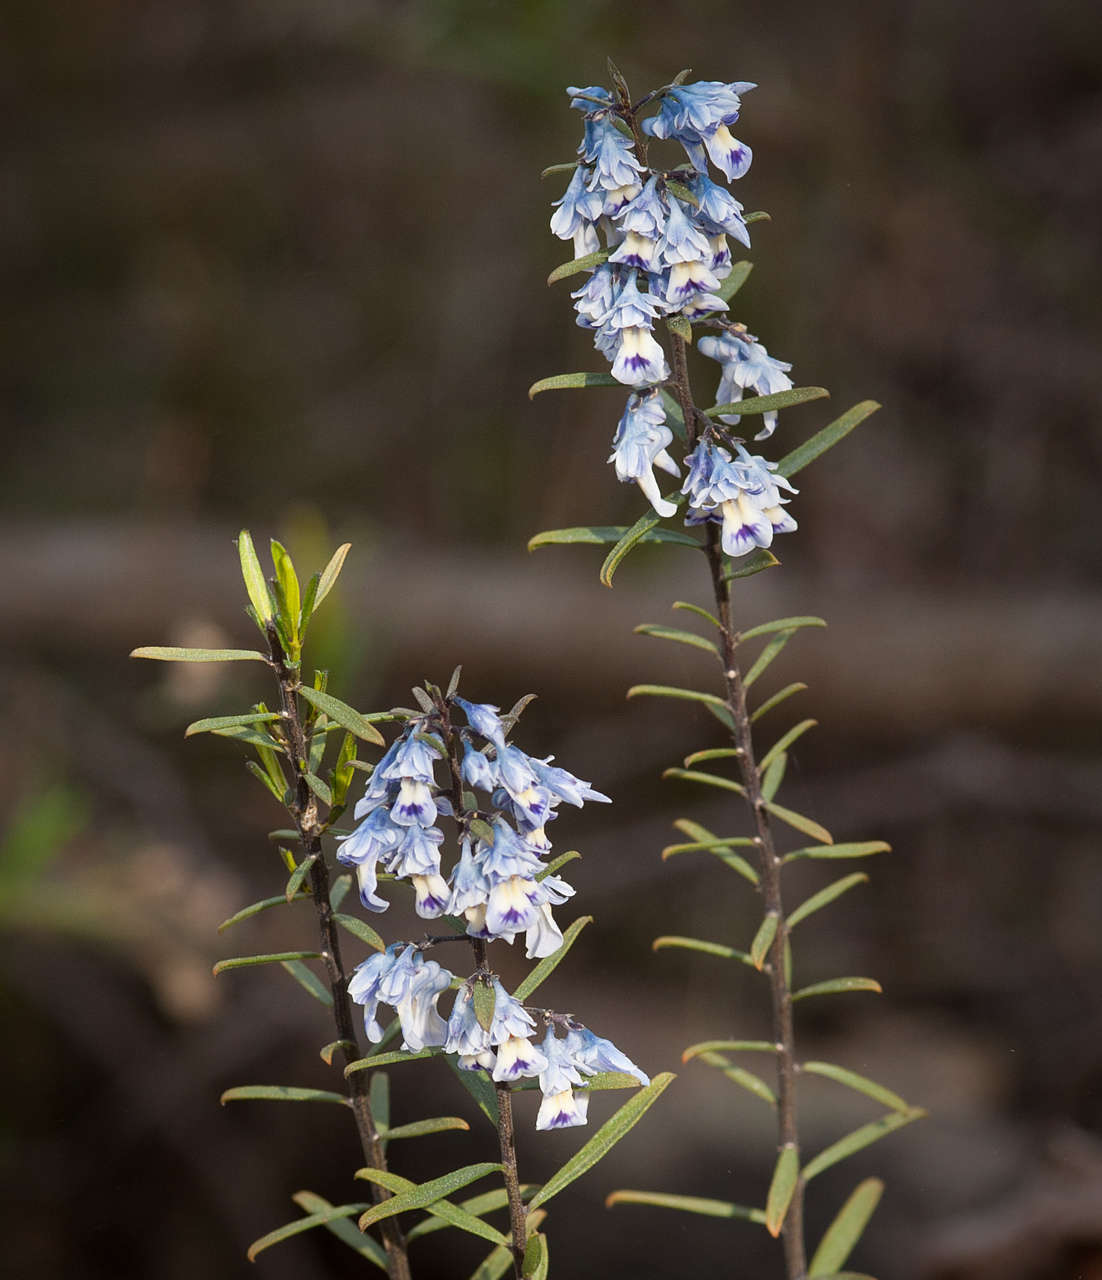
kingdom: Plantae
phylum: Tracheophyta
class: Magnoliopsida
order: Malpighiales
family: Violaceae
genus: Pigea
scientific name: Pigea floribunda
